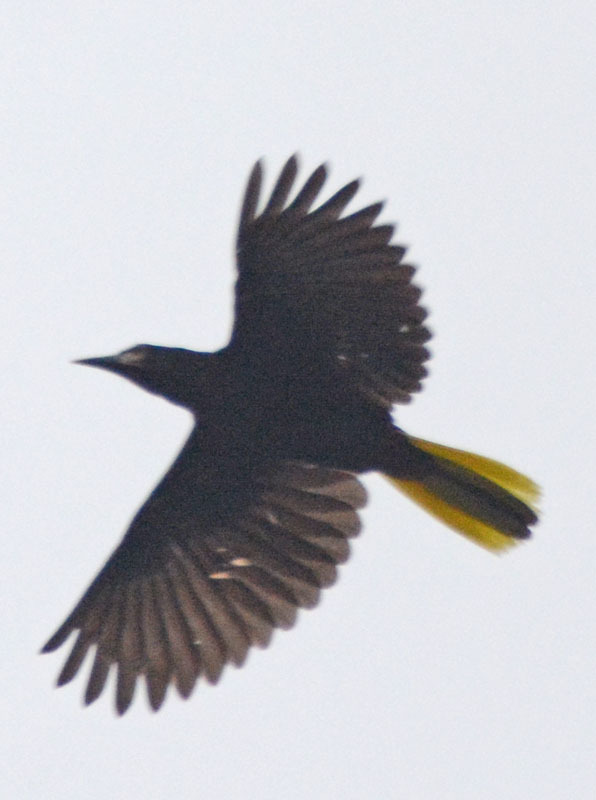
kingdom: Animalia
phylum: Chordata
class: Aves
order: Passeriformes
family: Icteridae
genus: Psarocolius
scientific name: Psarocolius montezuma
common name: Montezuma oropendola
